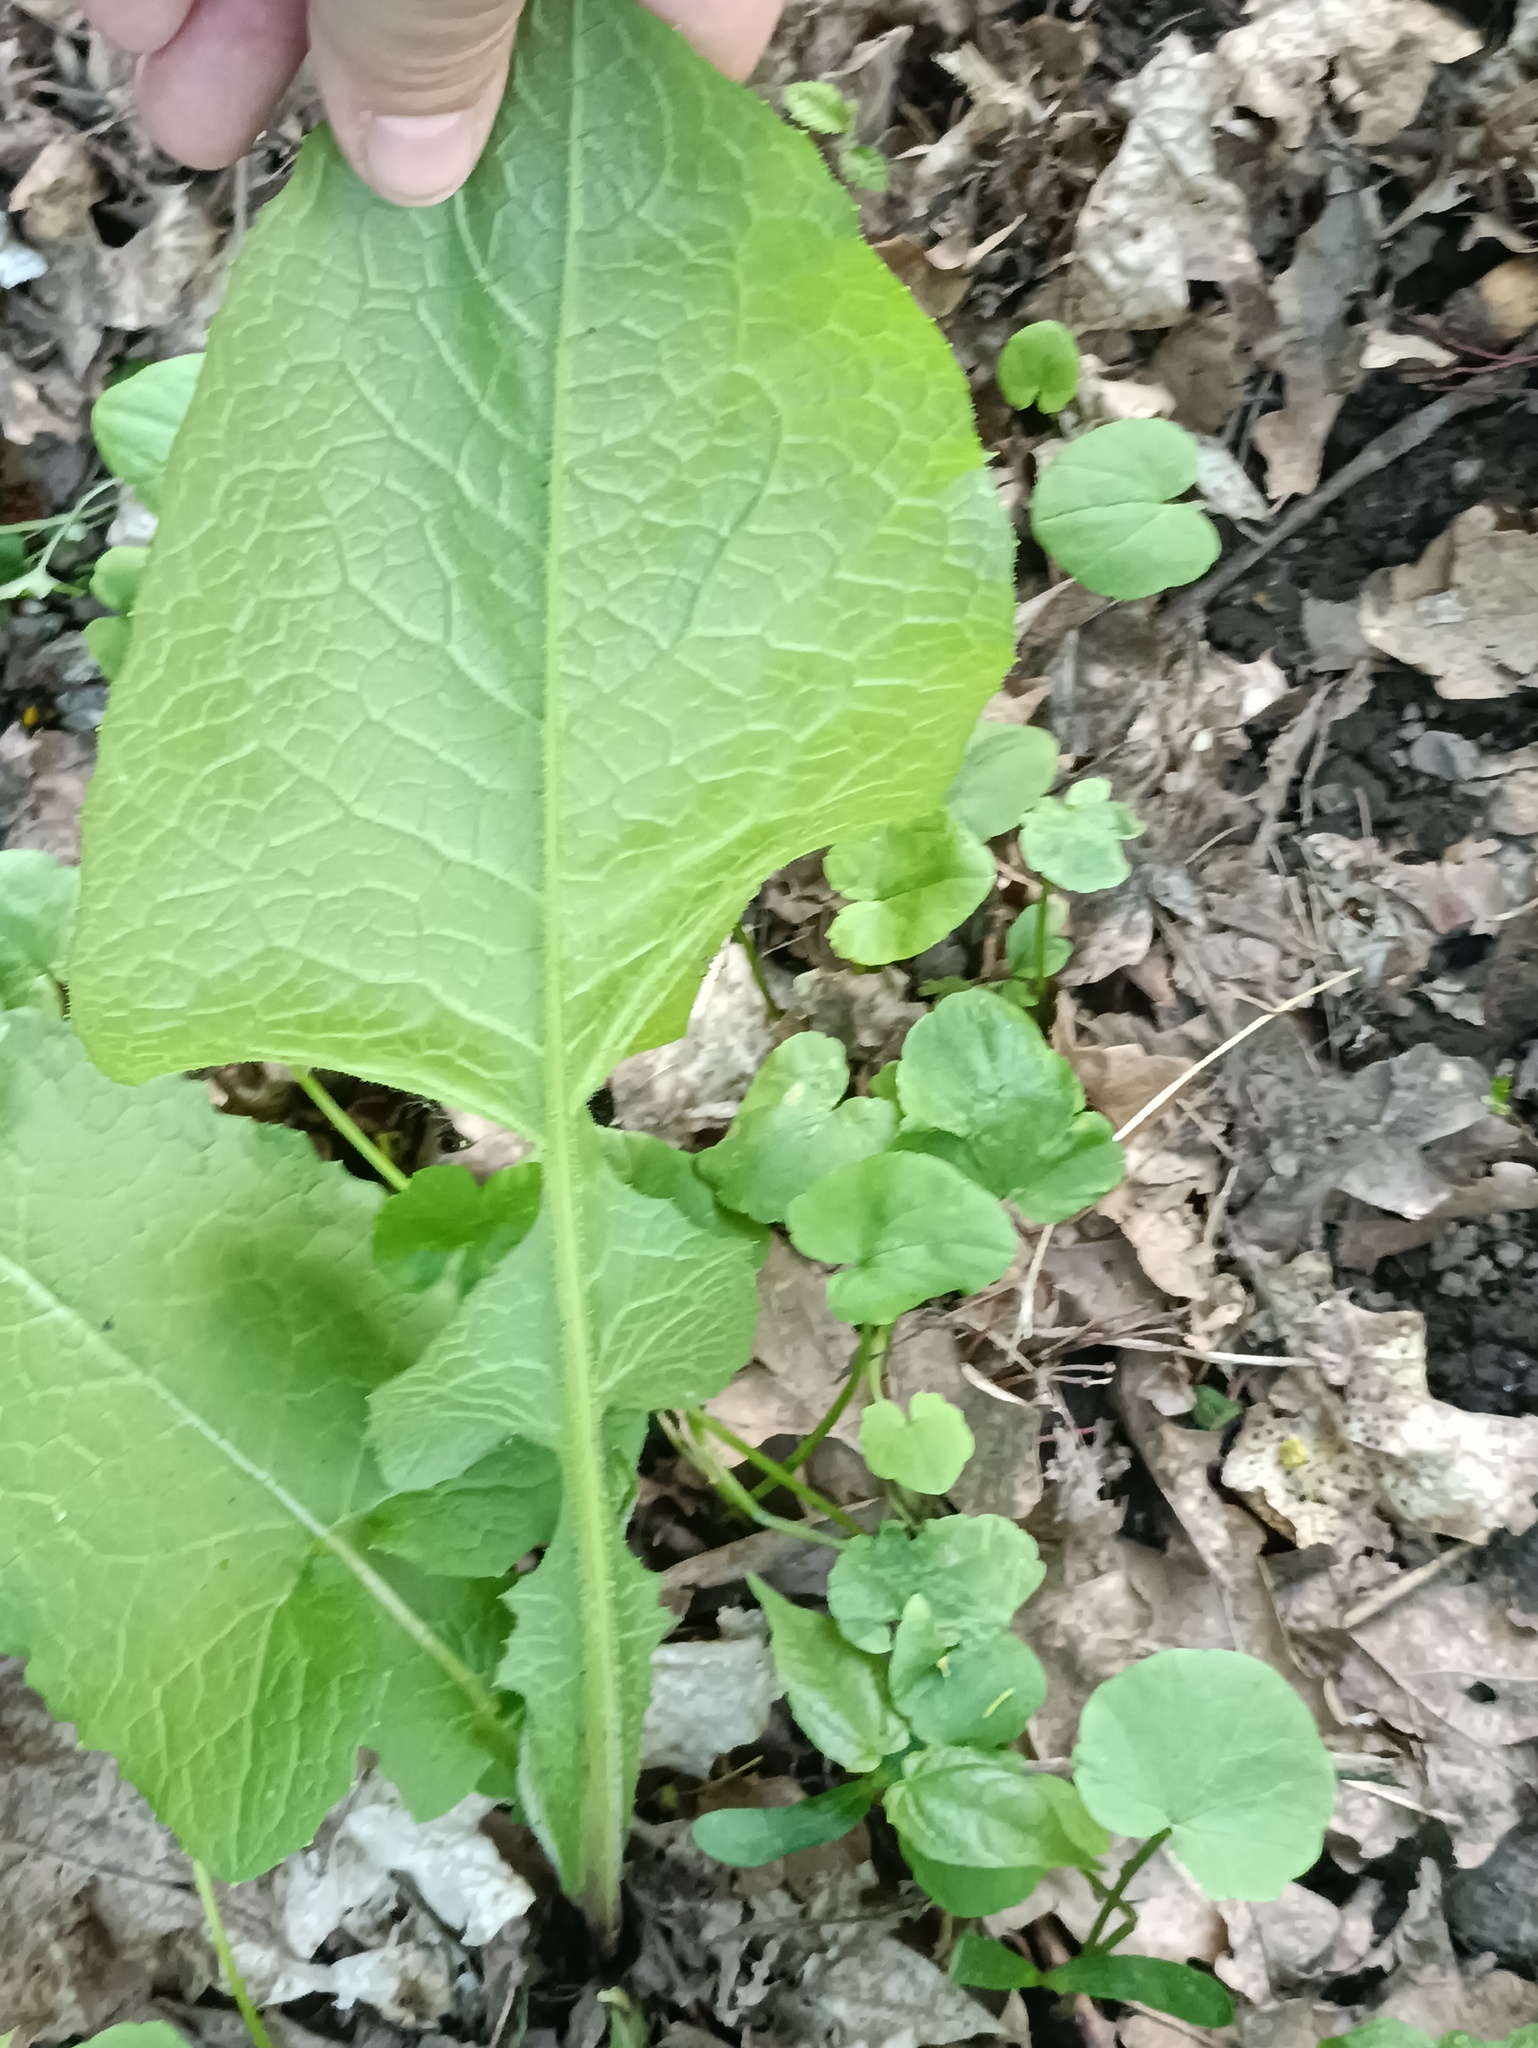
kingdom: Plantae
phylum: Tracheophyta
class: Magnoliopsida
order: Asterales
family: Asteraceae
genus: Lactuca
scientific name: Lactuca macrophylla
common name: Common blue-sow-thistle
